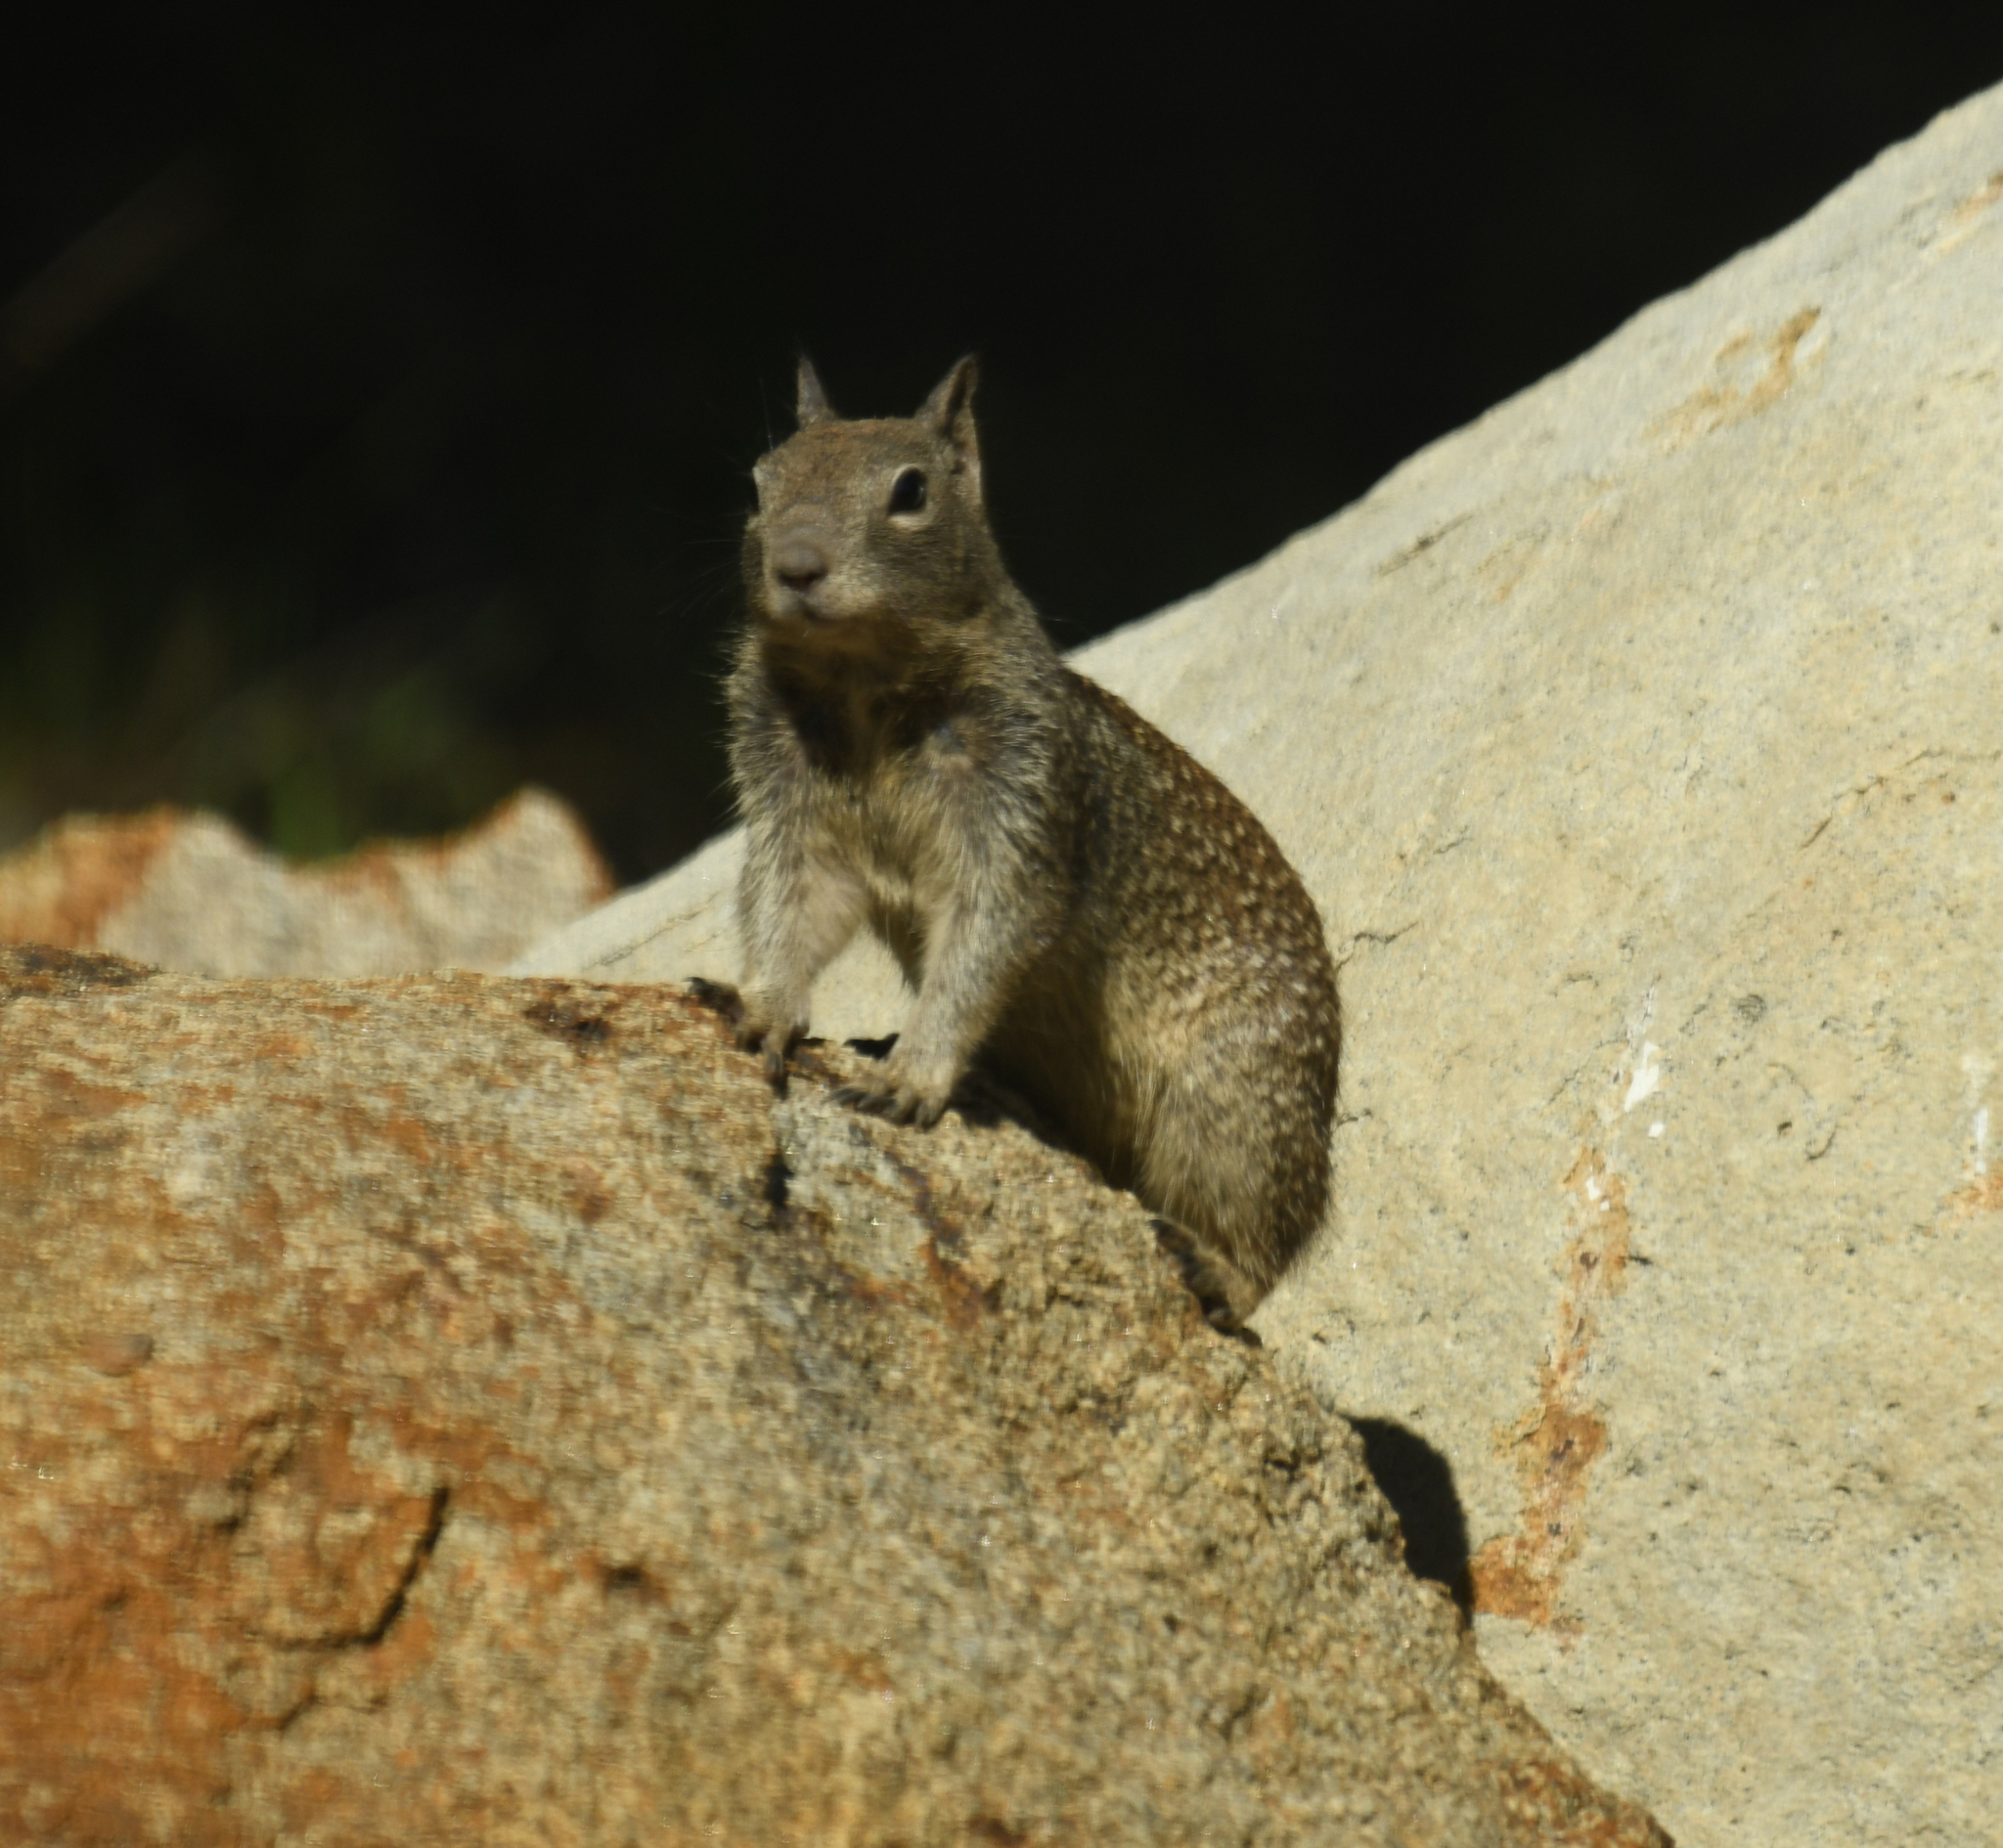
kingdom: Animalia
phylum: Chordata
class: Mammalia
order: Rodentia
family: Sciuridae
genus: Otospermophilus
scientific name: Otospermophilus beecheyi
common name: California ground squirrel
